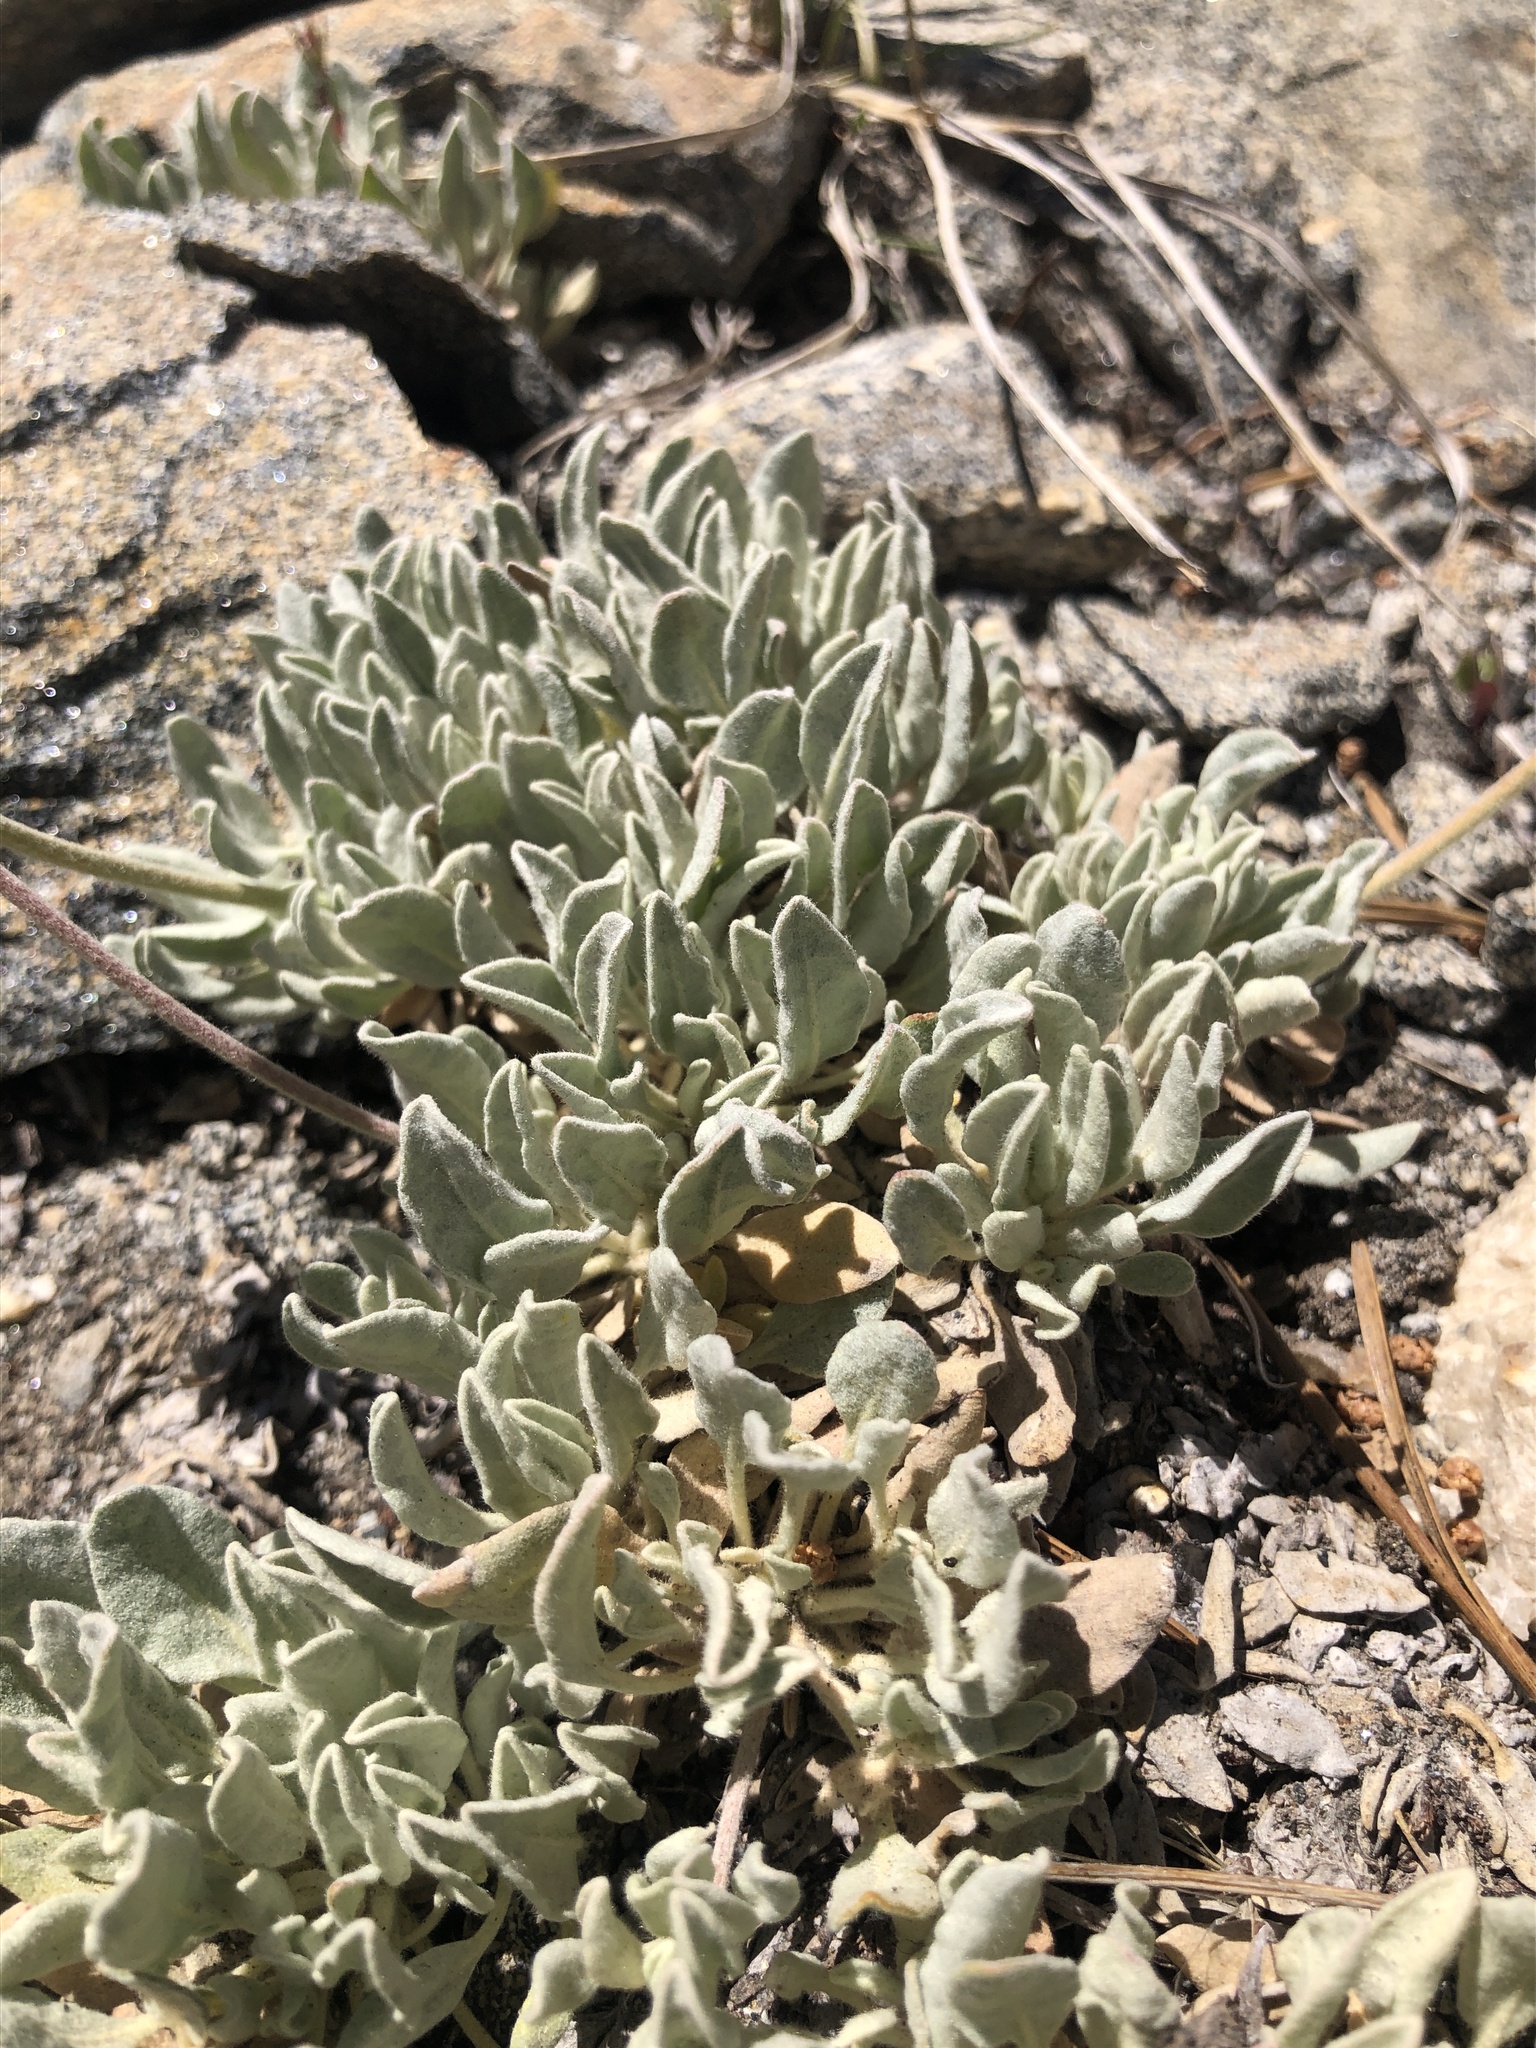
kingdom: Plantae
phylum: Tracheophyta
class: Magnoliopsida
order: Caryophyllales
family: Polygonaceae
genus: Eriogonum
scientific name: Eriogonum incanum
